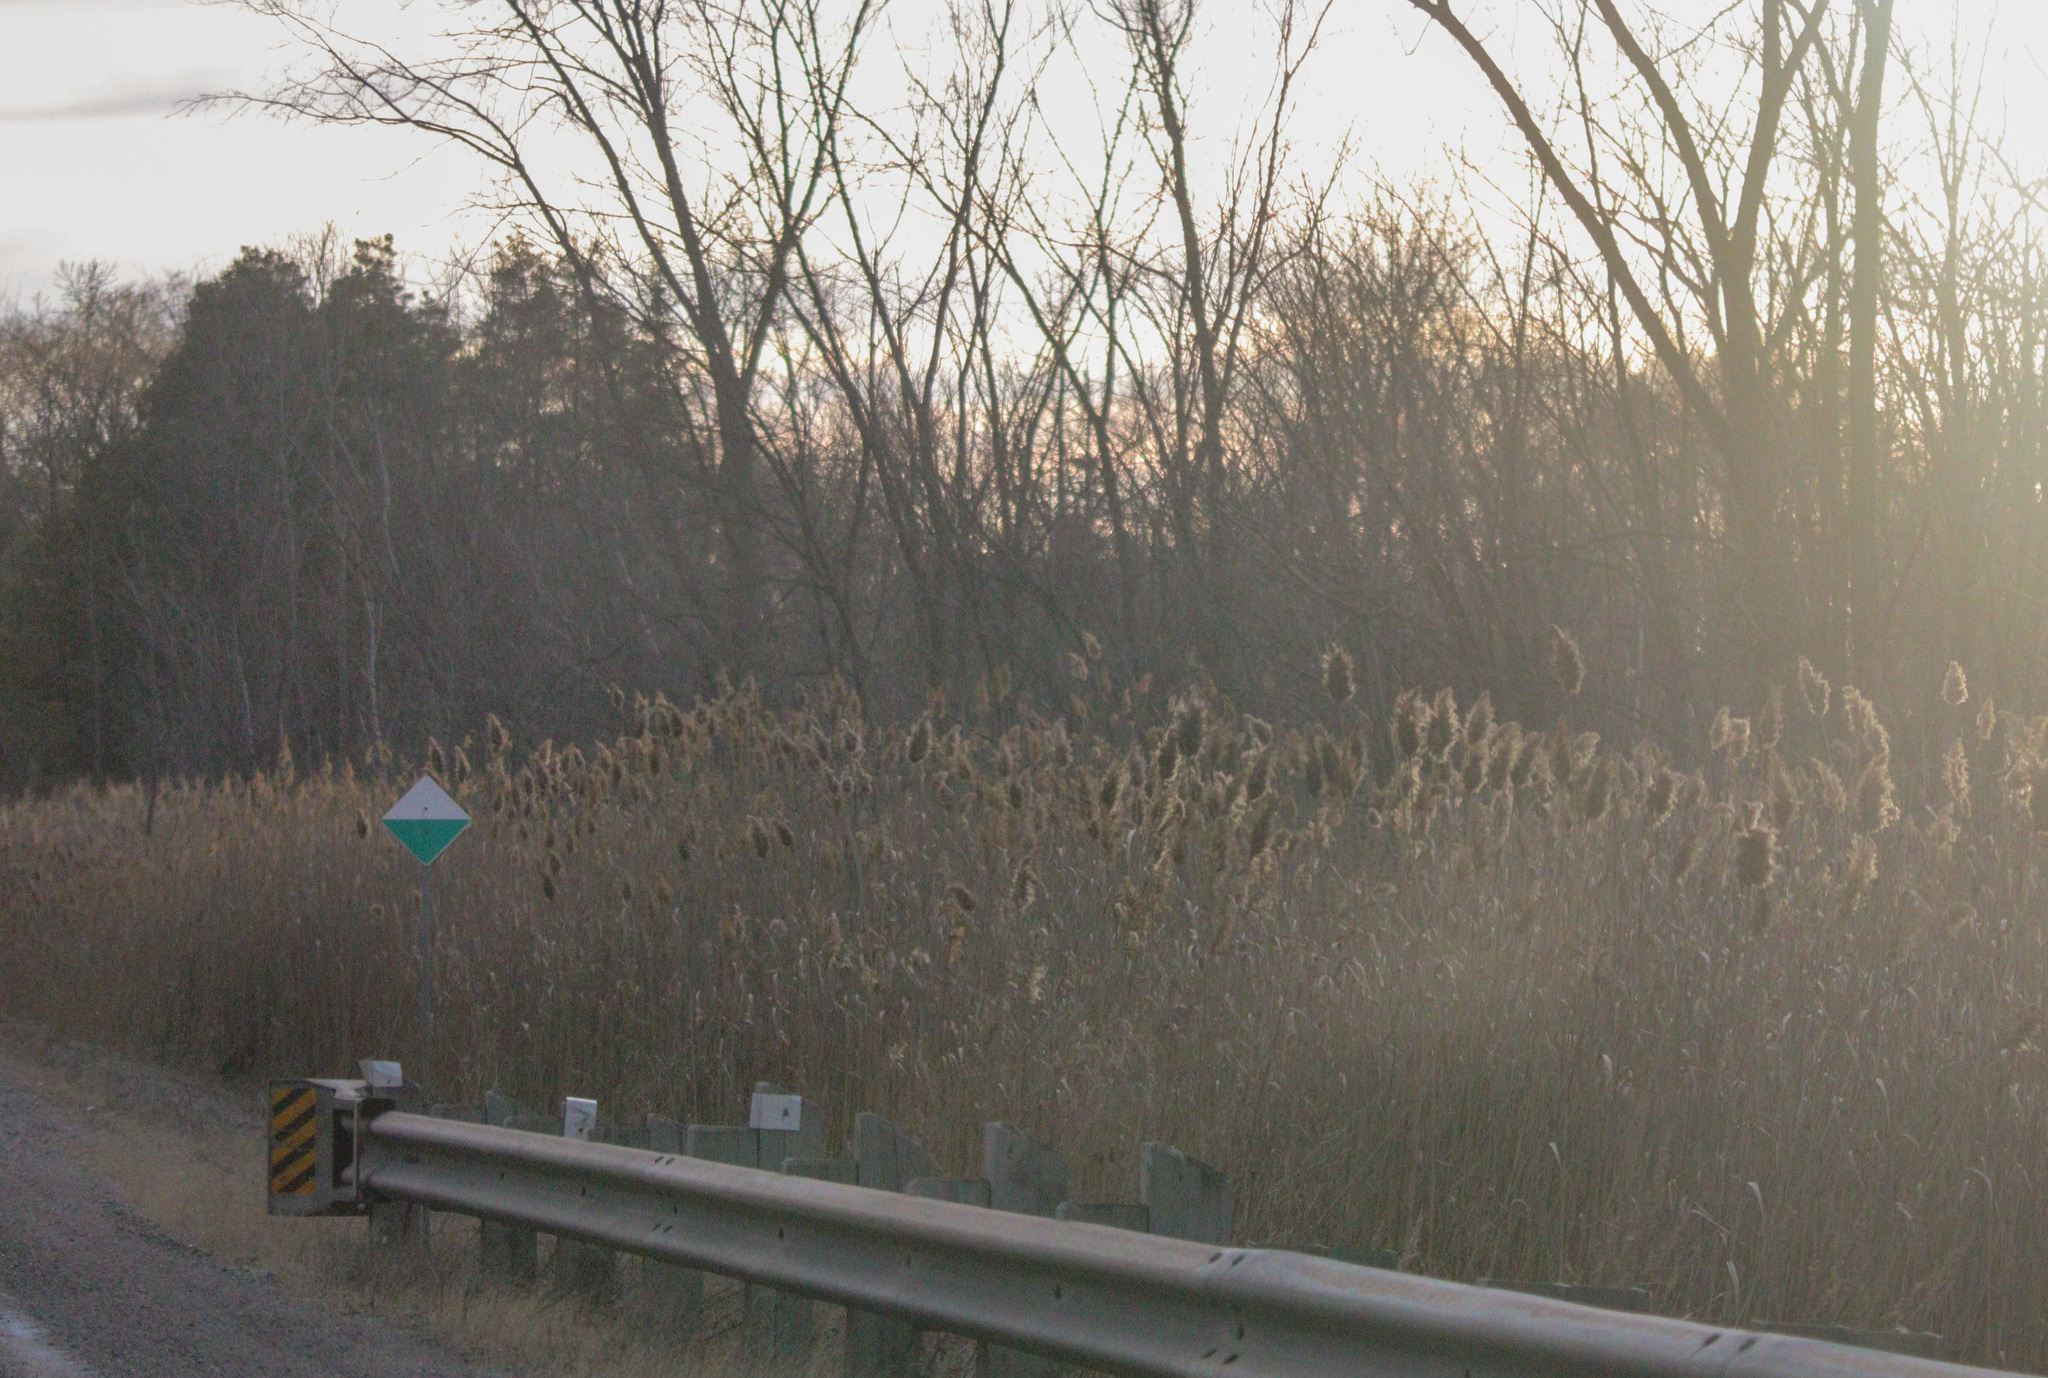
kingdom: Plantae
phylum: Tracheophyta
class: Liliopsida
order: Poales
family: Poaceae
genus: Phragmites
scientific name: Phragmites australis
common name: Common reed
